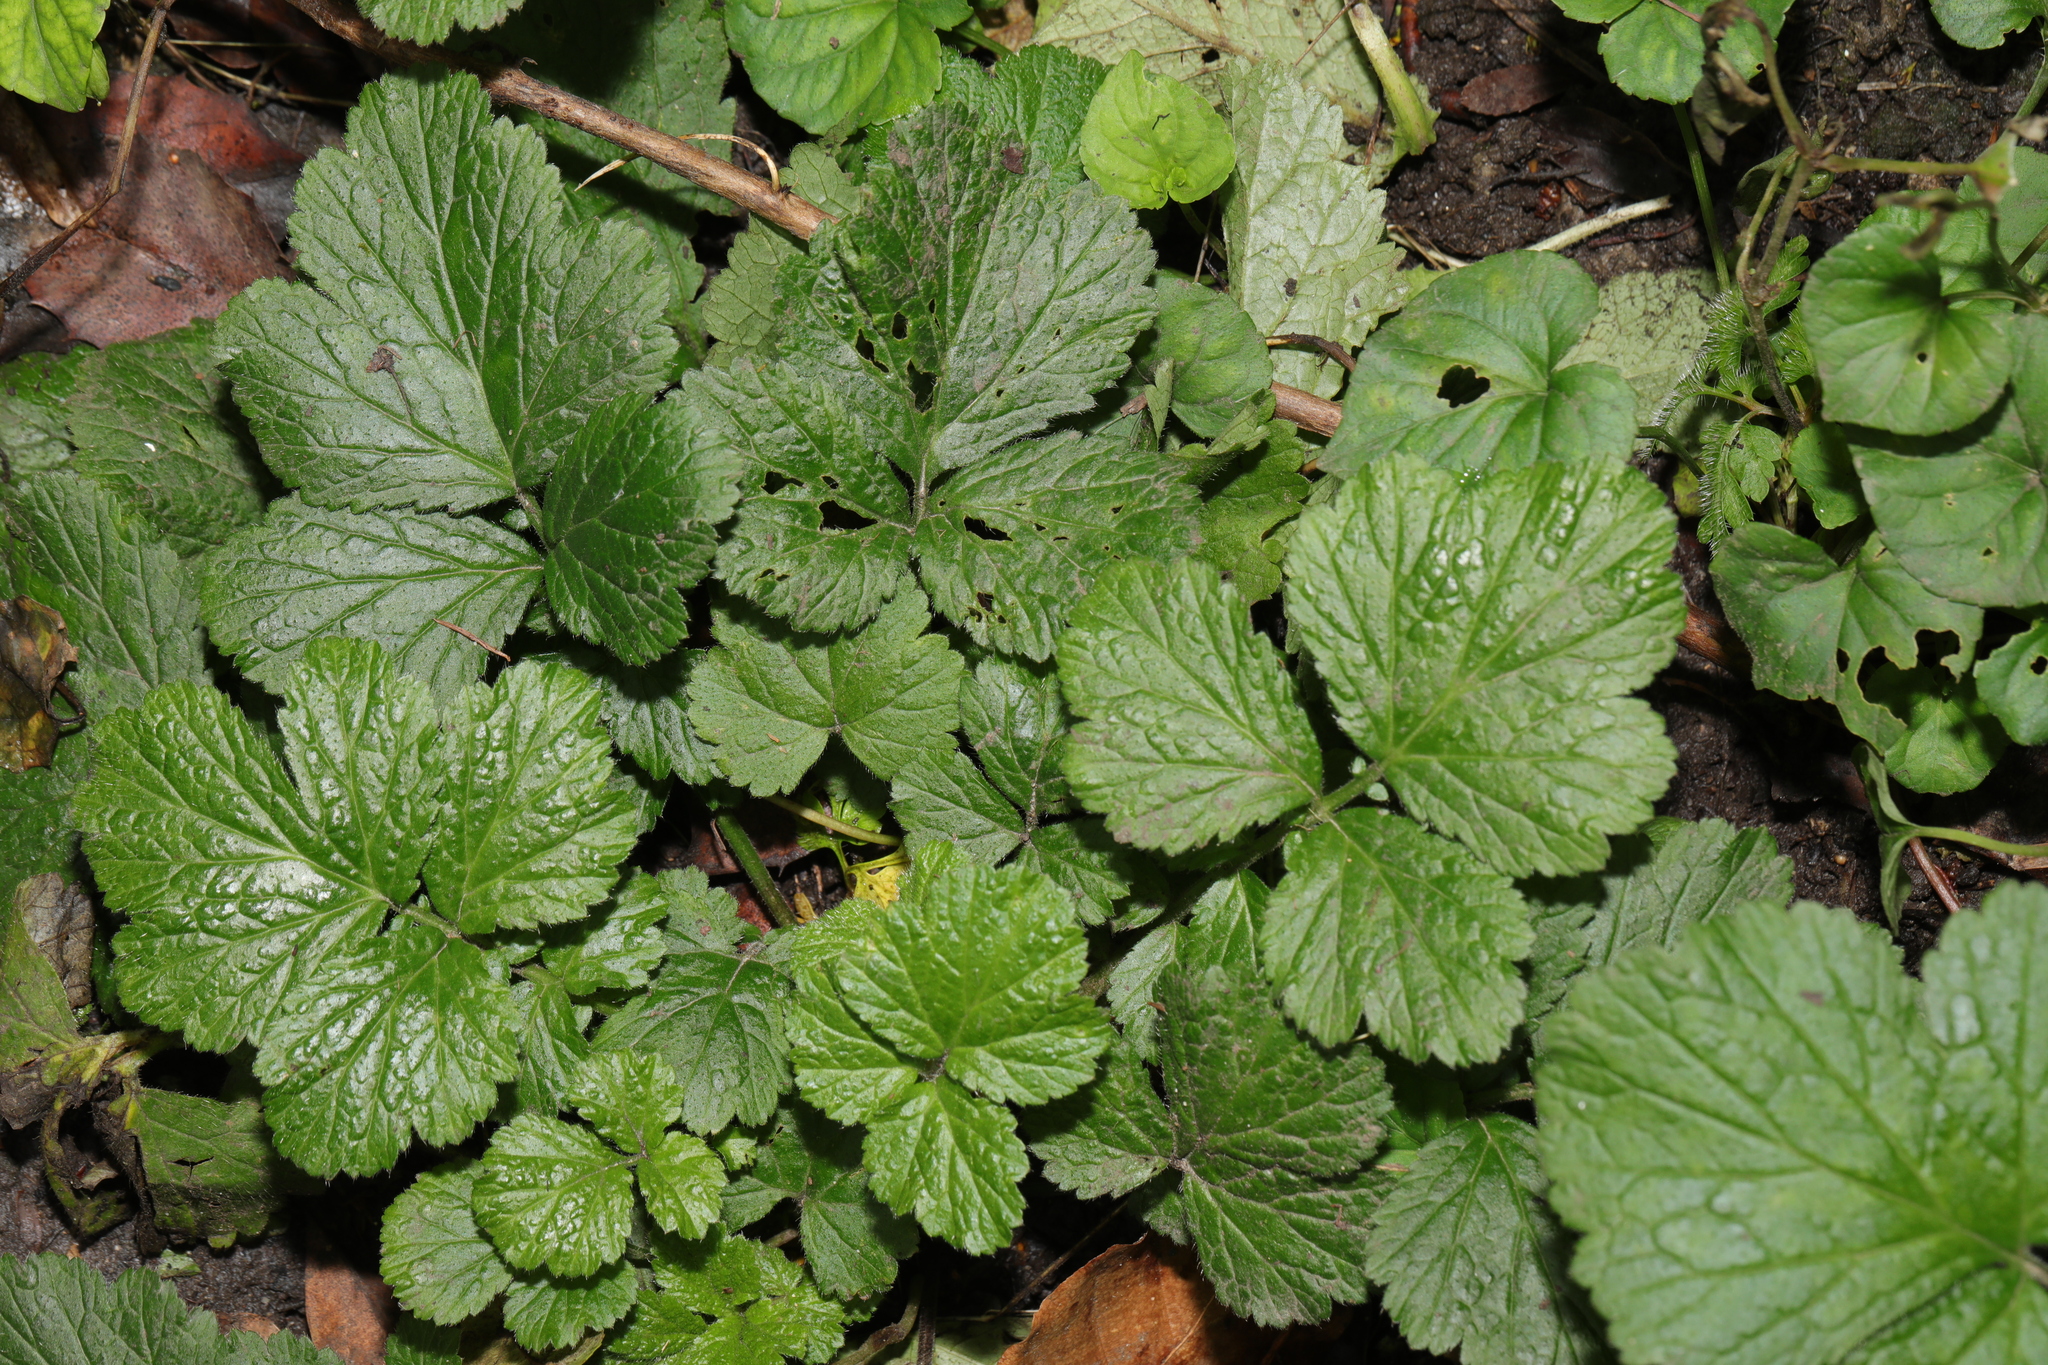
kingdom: Plantae
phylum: Tracheophyta
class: Magnoliopsida
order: Rosales
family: Rosaceae
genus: Geum
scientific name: Geum urbanum
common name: Wood avens
